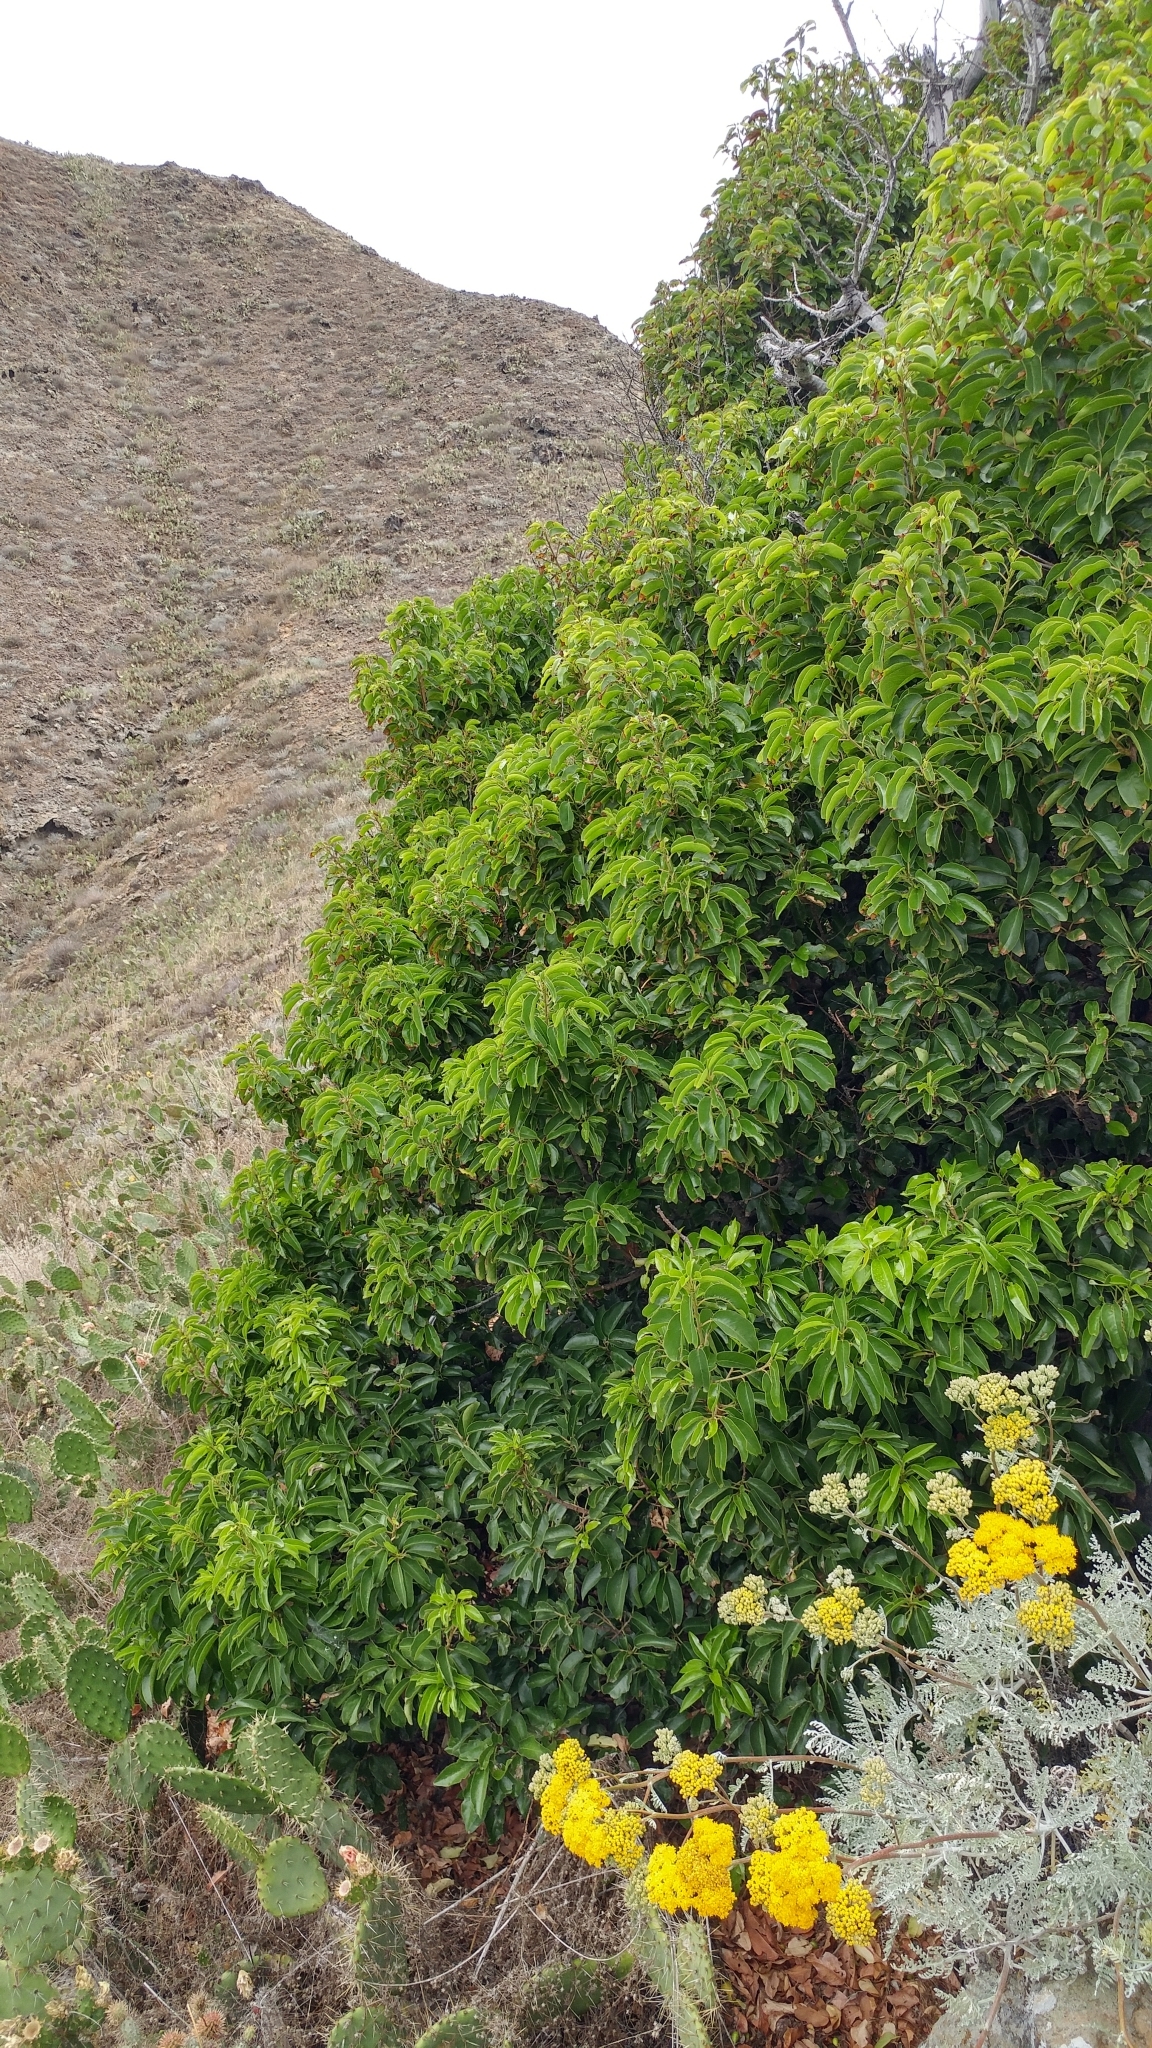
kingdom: Plantae
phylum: Tracheophyta
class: Magnoliopsida
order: Rosales
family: Rosaceae
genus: Prunus
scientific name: Prunus ilicifolia
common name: Hollyleaf cherry
